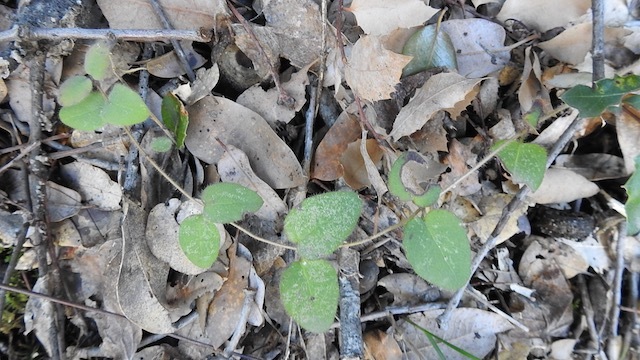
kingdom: Plantae
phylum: Tracheophyta
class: Magnoliopsida
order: Dipsacales
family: Caprifoliaceae
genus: Lonicera
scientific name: Lonicera hispidula
